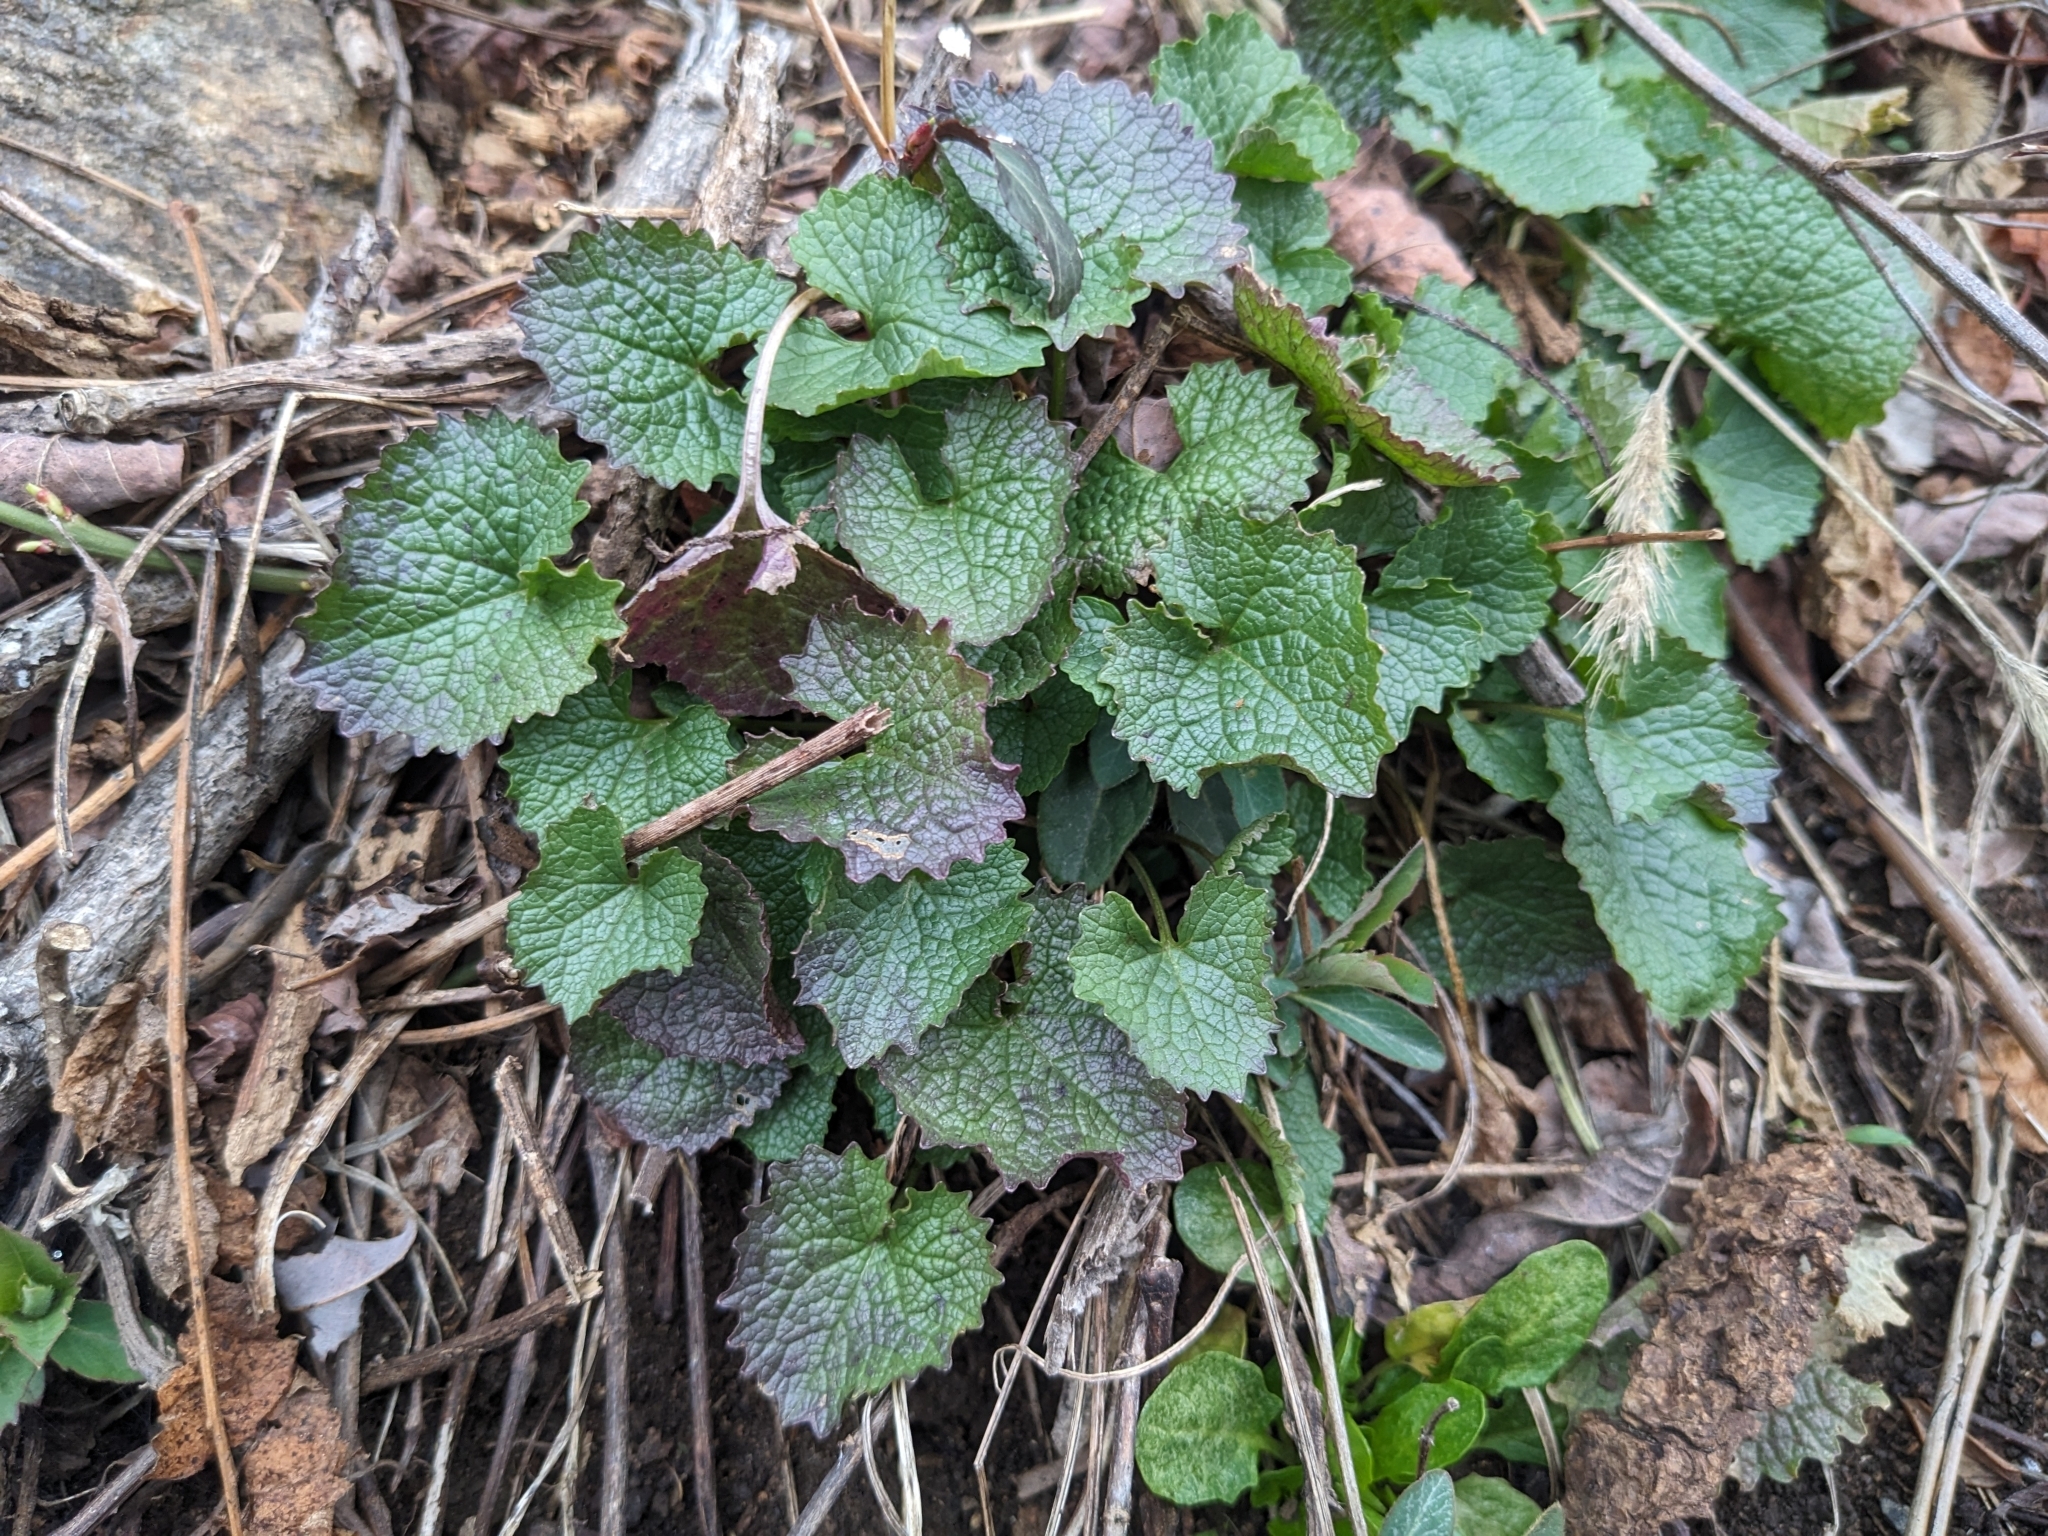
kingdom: Plantae
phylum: Tracheophyta
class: Magnoliopsida
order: Brassicales
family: Brassicaceae
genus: Alliaria
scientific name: Alliaria petiolata
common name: Garlic mustard
